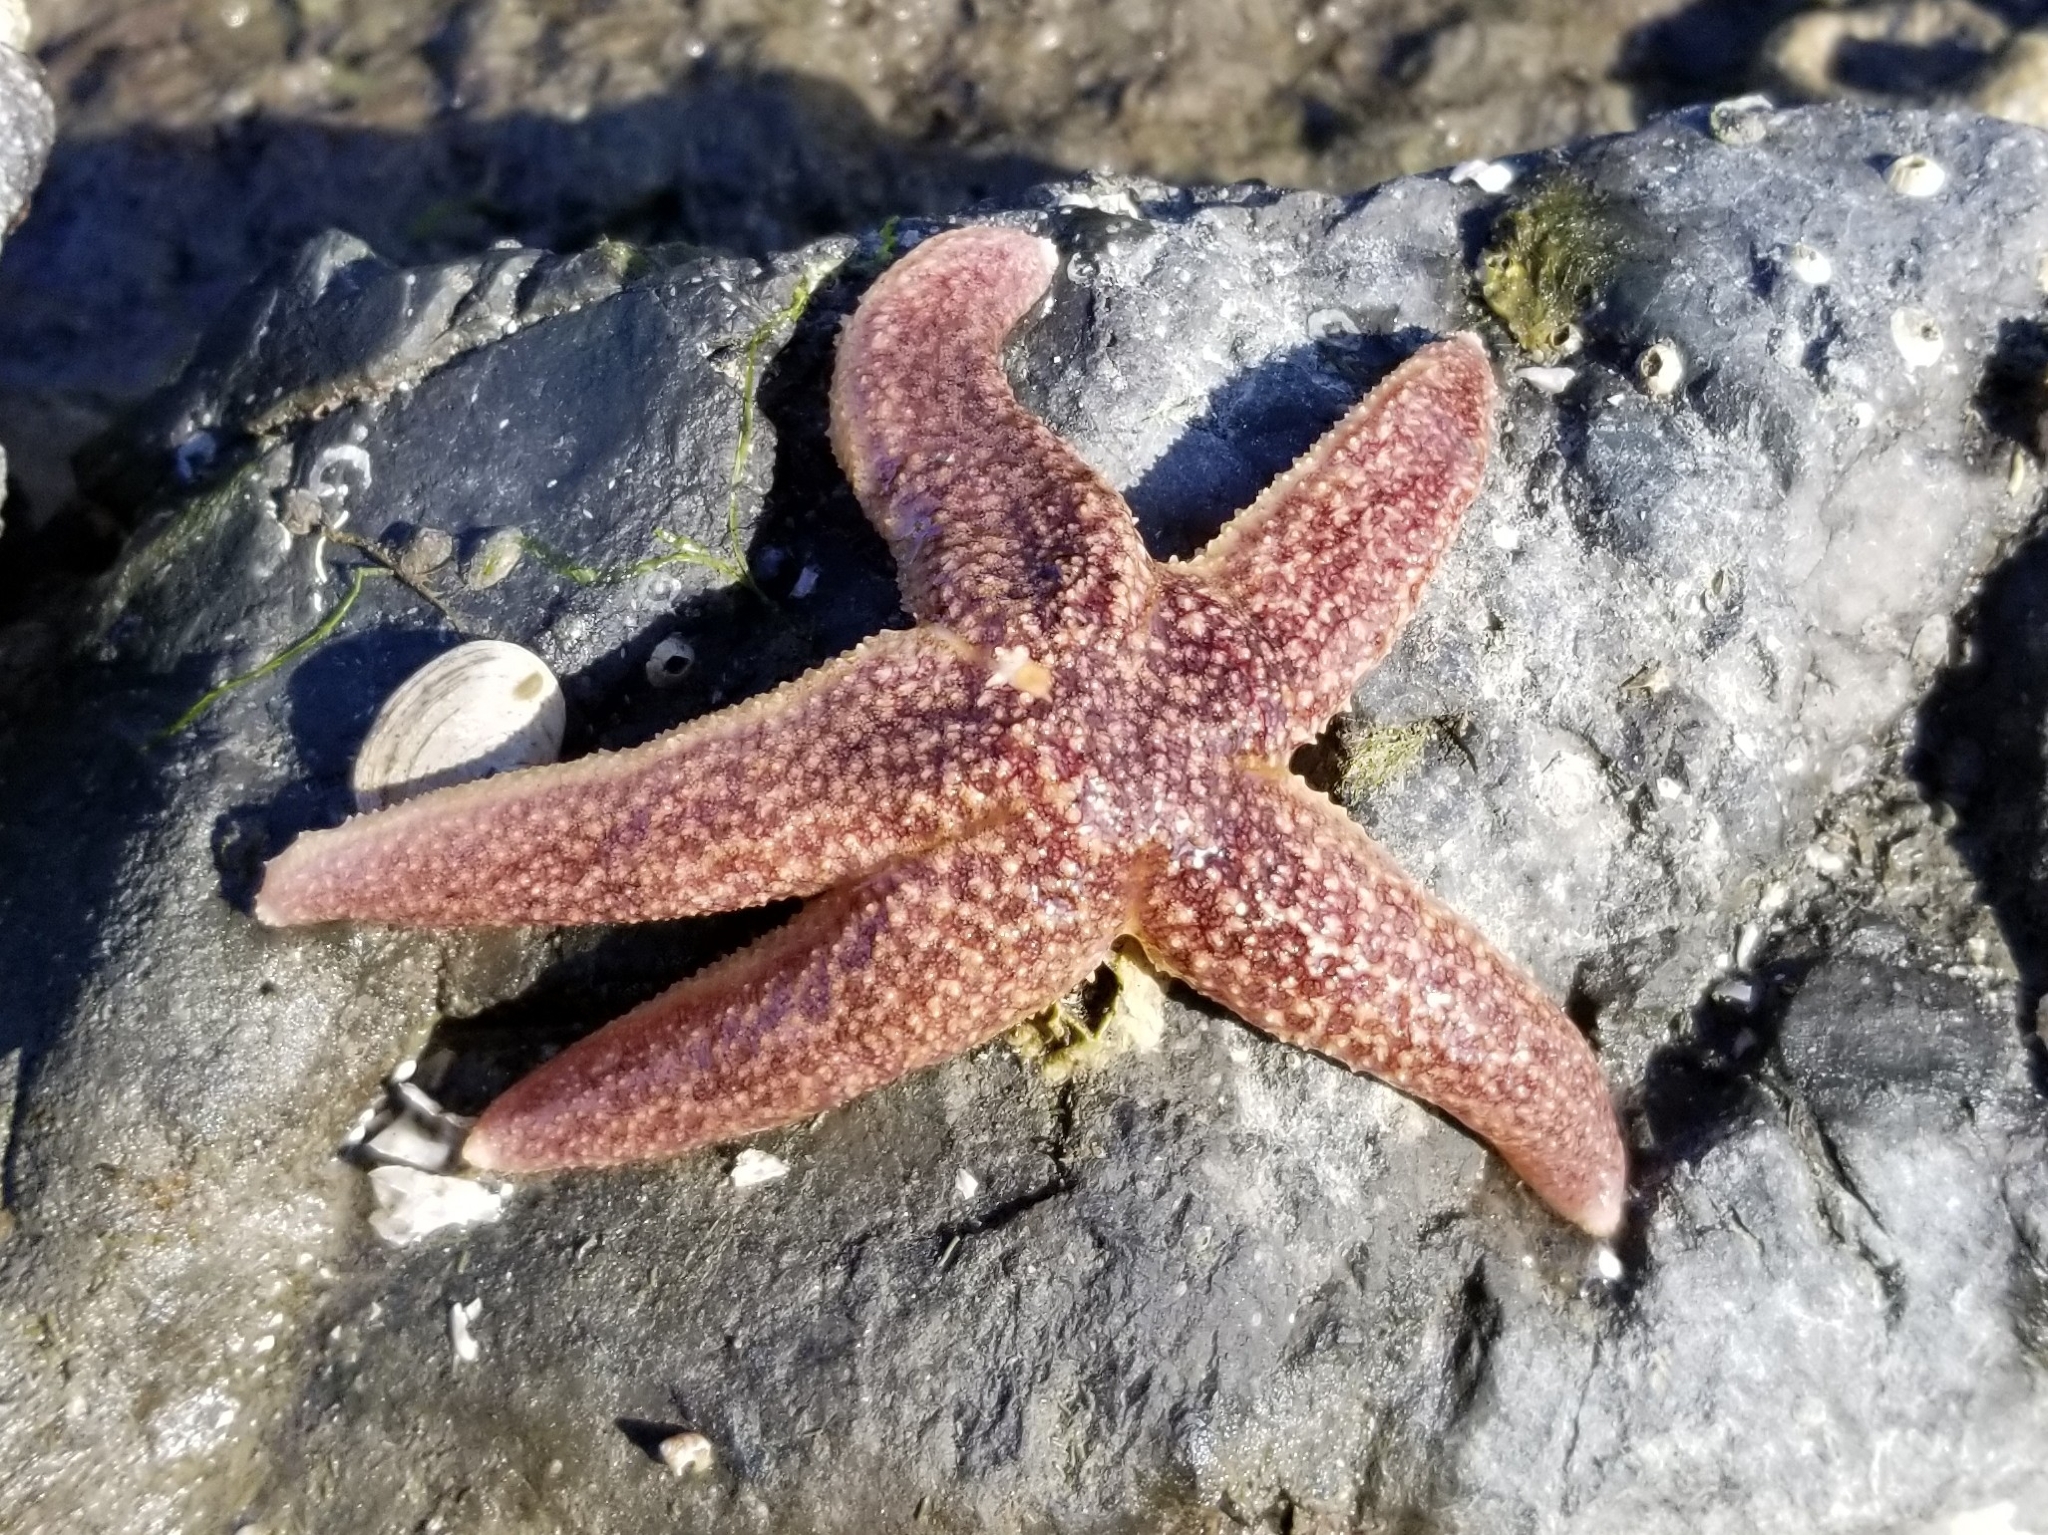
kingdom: Animalia
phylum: Echinodermata
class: Asteroidea
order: Forcipulatida
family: Asteriidae
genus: Evasterias
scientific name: Evasterias troschelii
